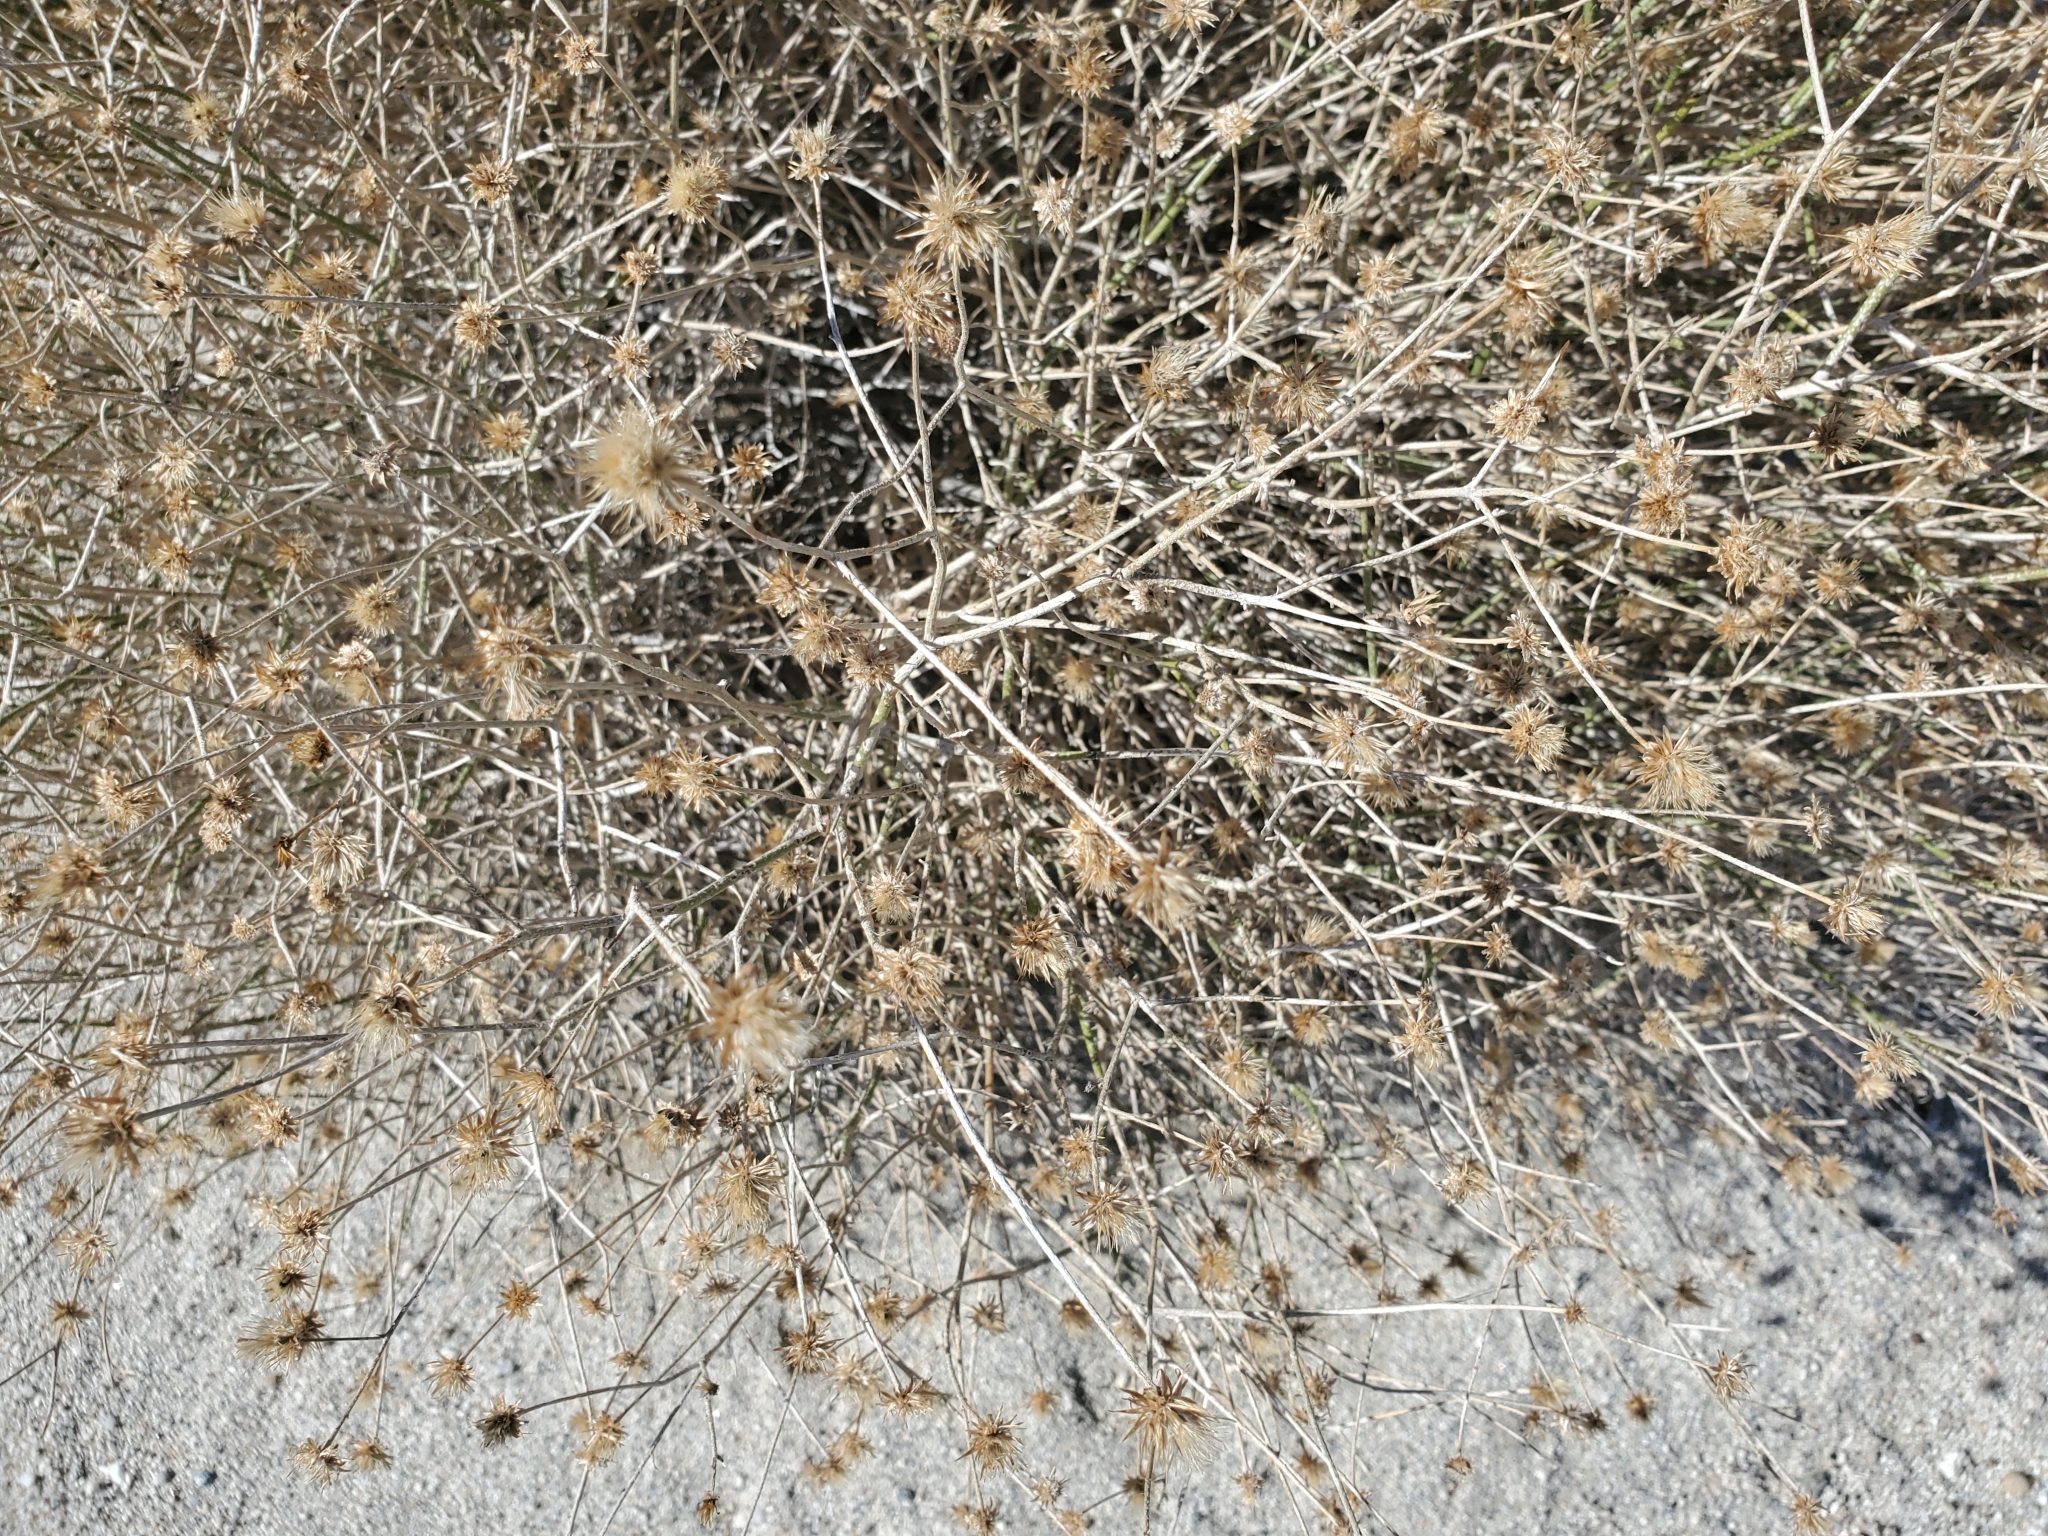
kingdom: Plantae
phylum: Tracheophyta
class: Magnoliopsida
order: Asterales
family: Asteraceae
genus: Bebbia
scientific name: Bebbia juncea
